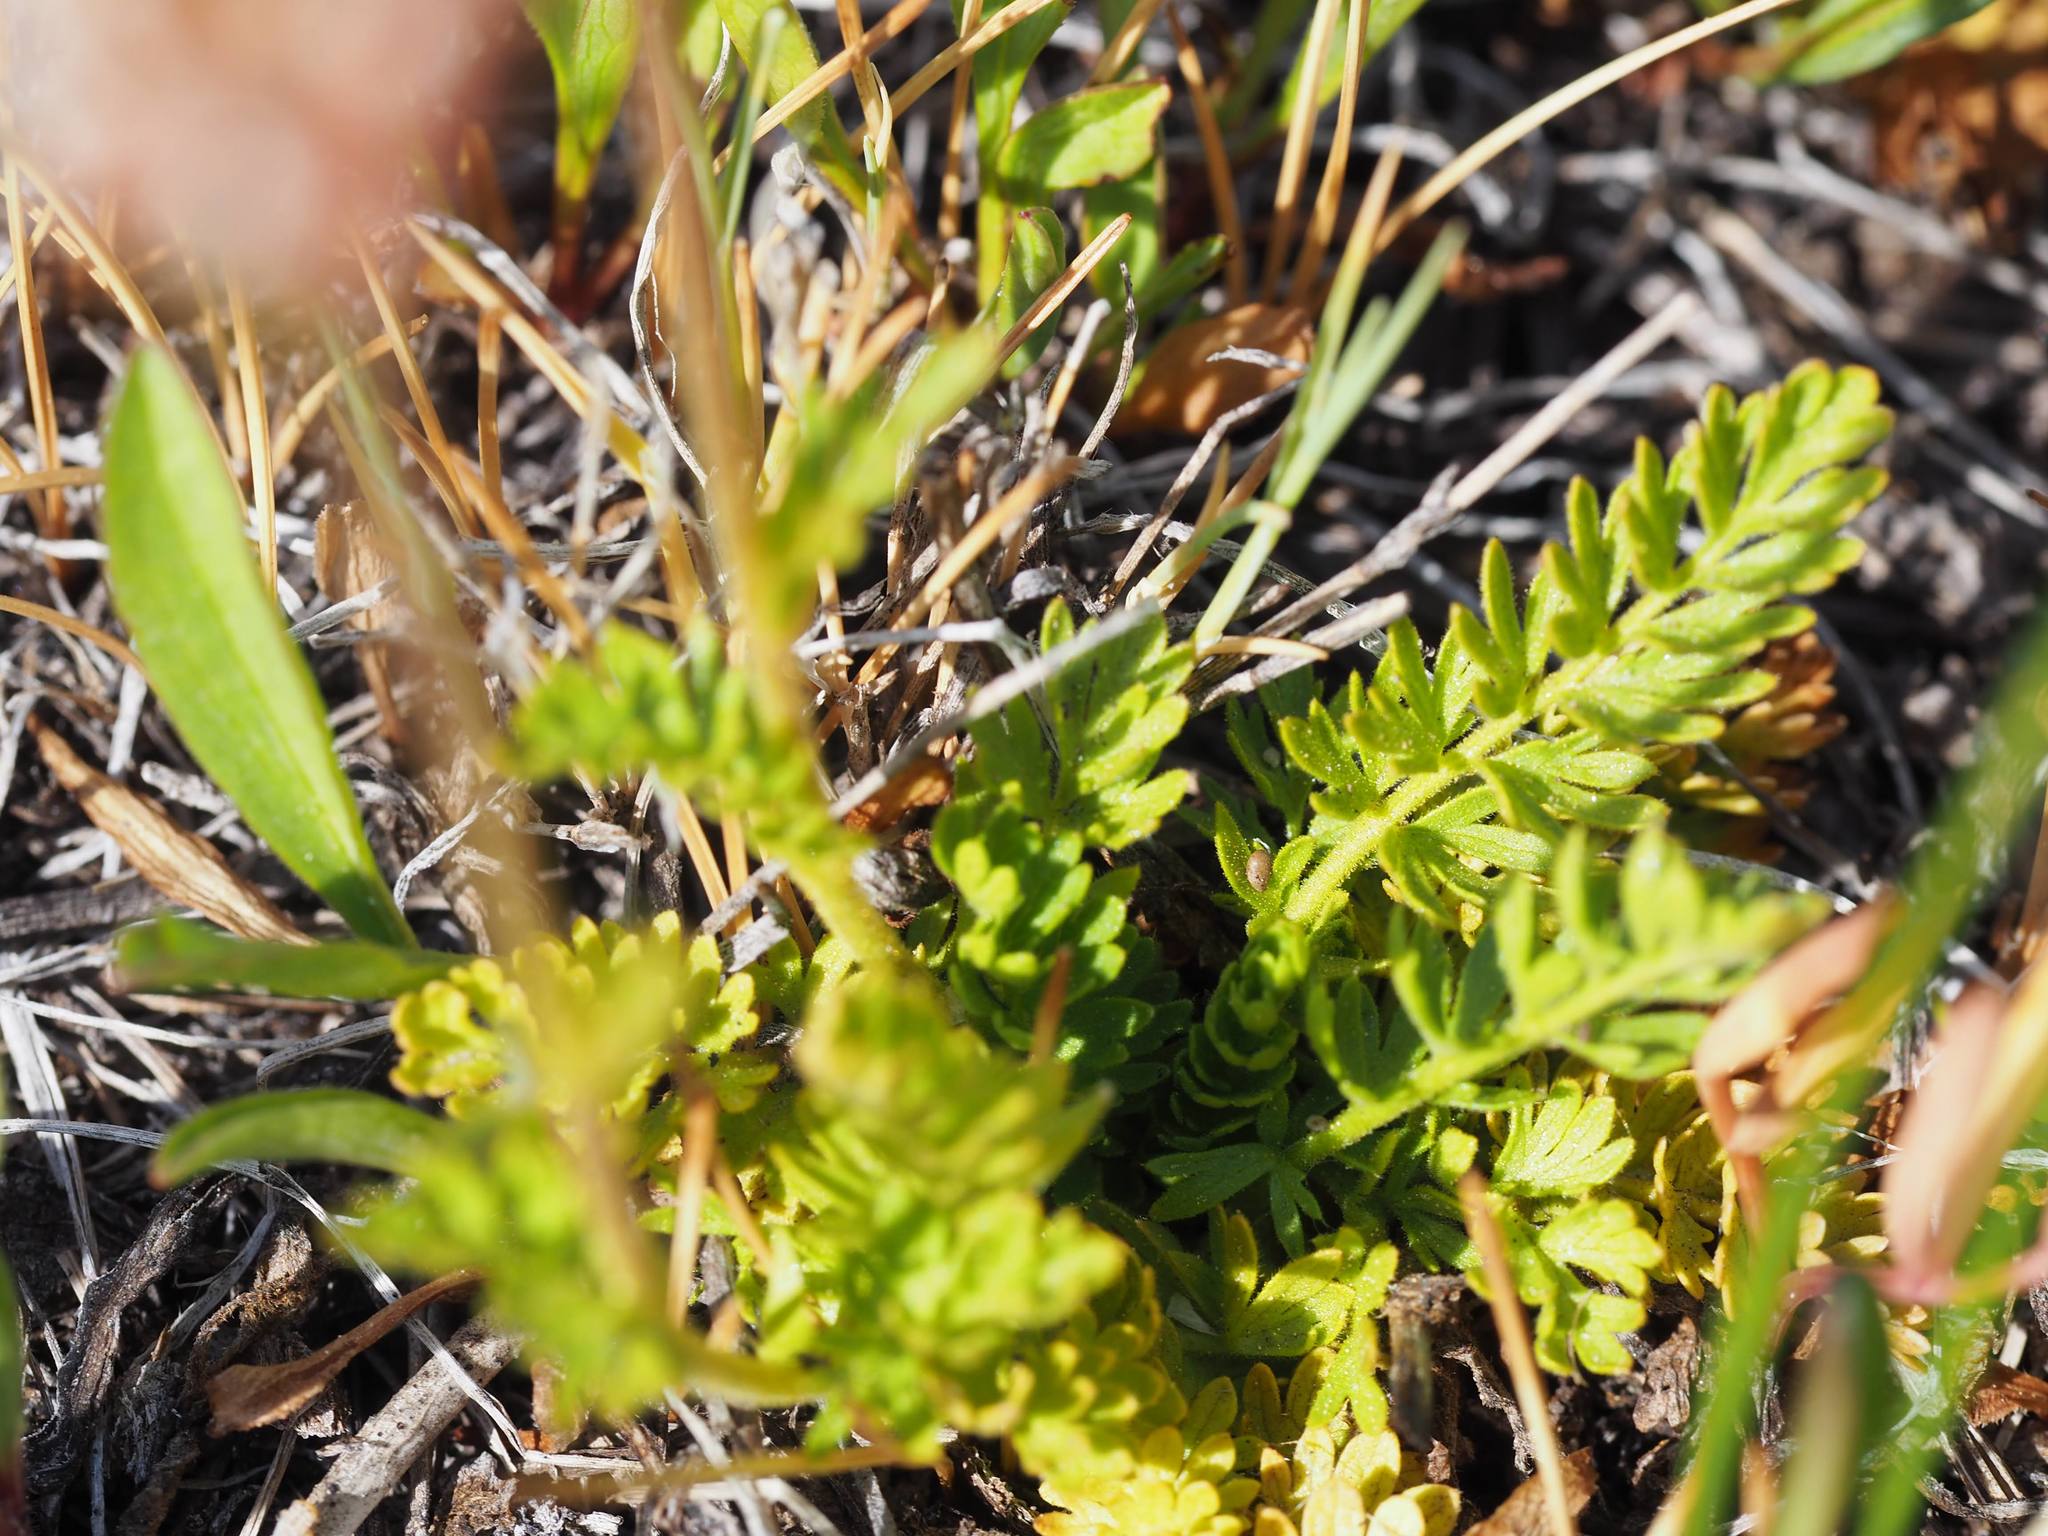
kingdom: Plantae
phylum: Tracheophyta
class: Magnoliopsida
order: Rosales
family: Rosaceae
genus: Potentilla
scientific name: Potentilla douglasii
